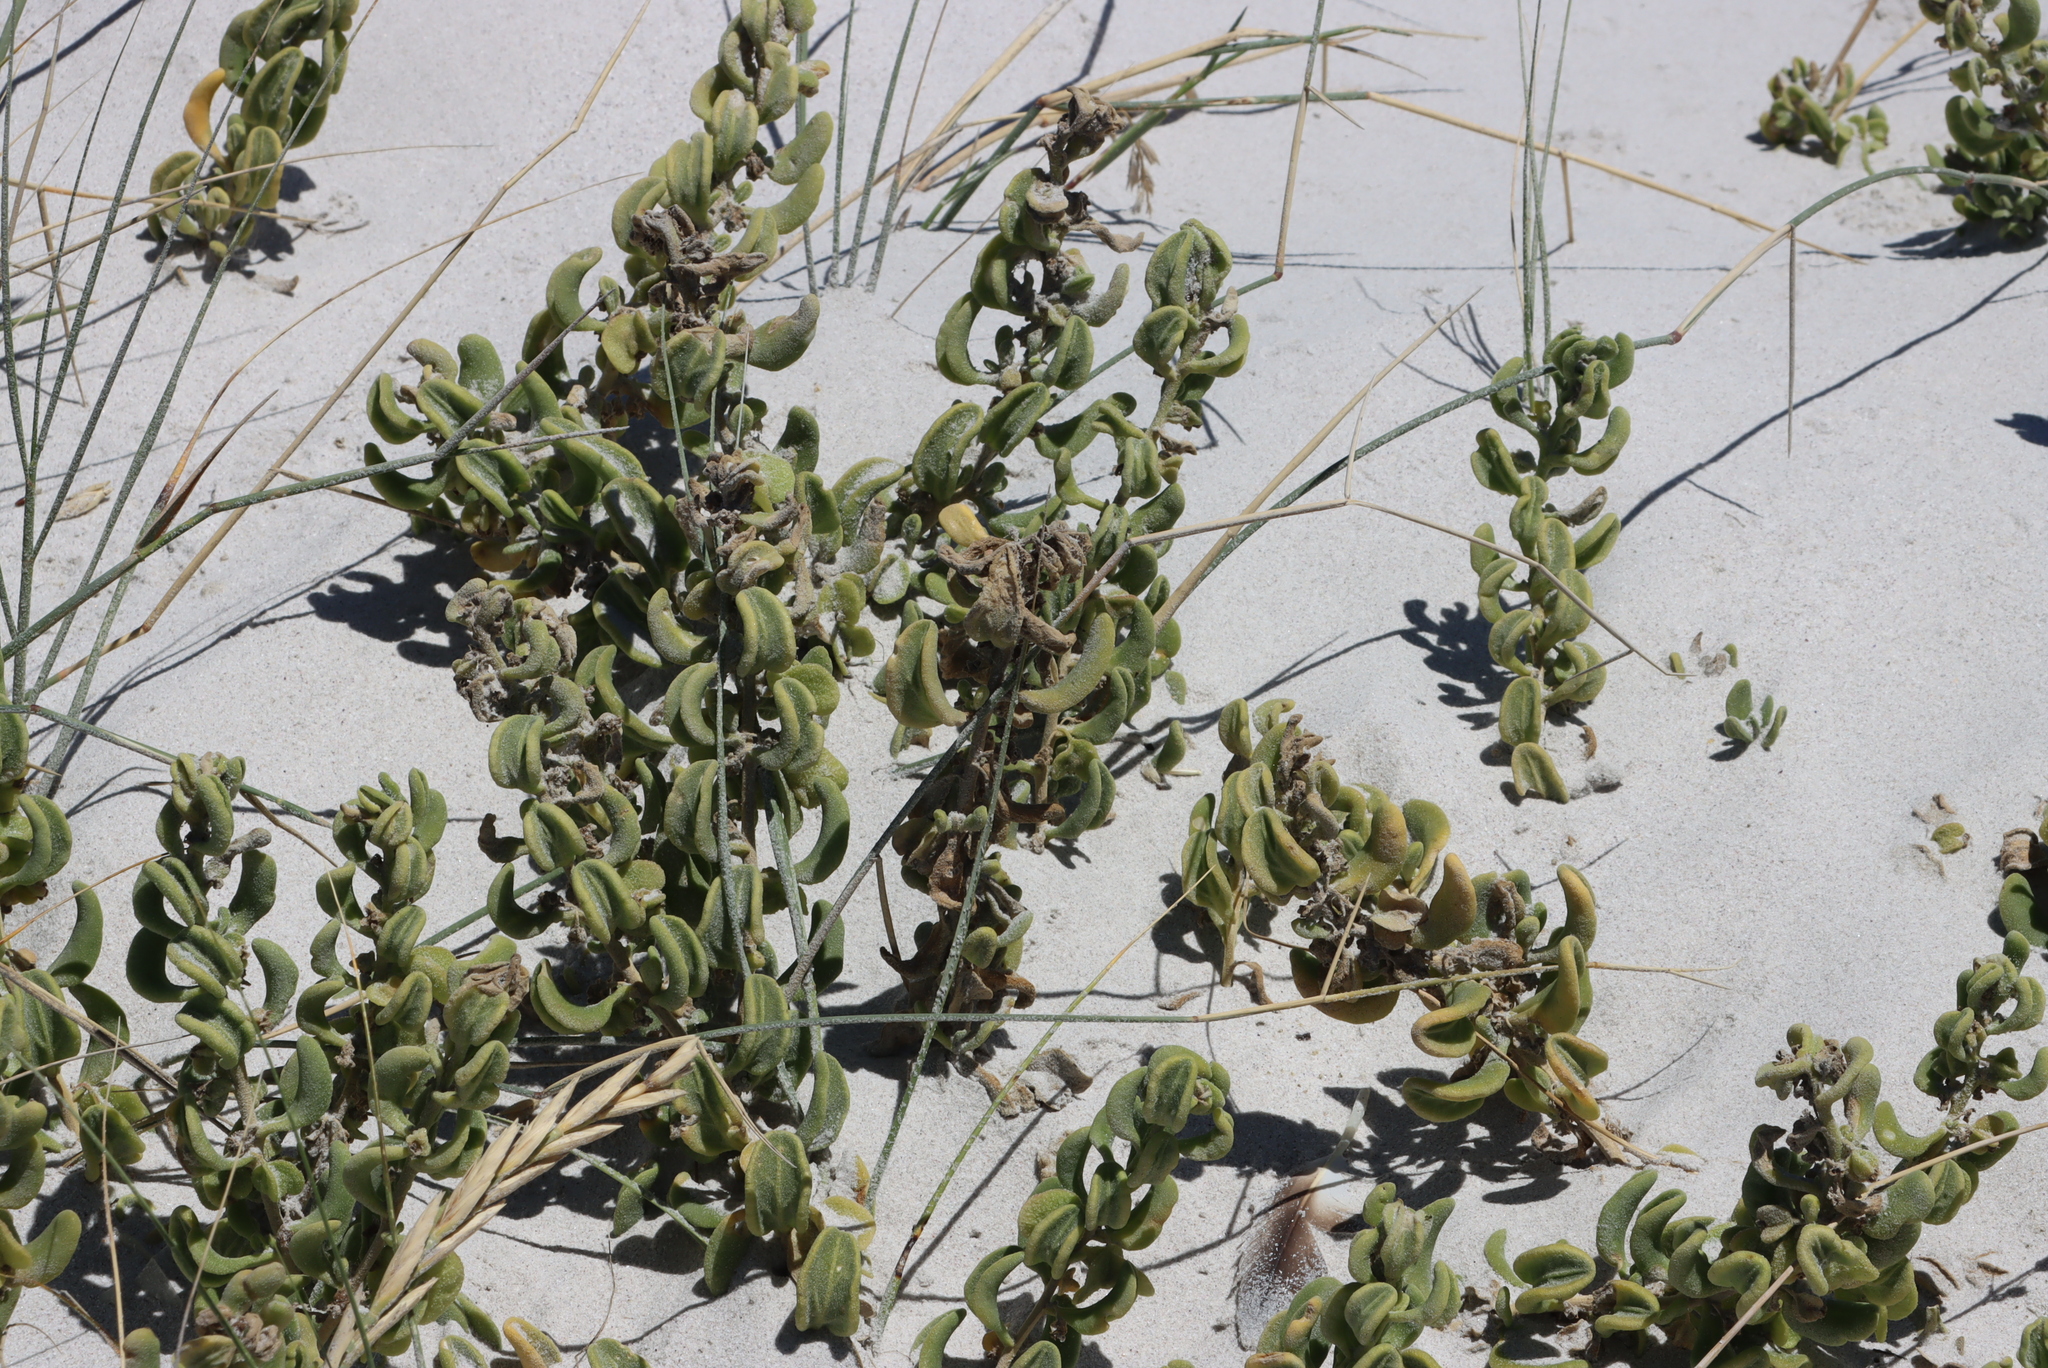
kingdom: Plantae
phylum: Tracheophyta
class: Magnoliopsida
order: Caryophyllales
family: Aizoaceae
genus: Tetragonia
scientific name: Tetragonia decumbens
